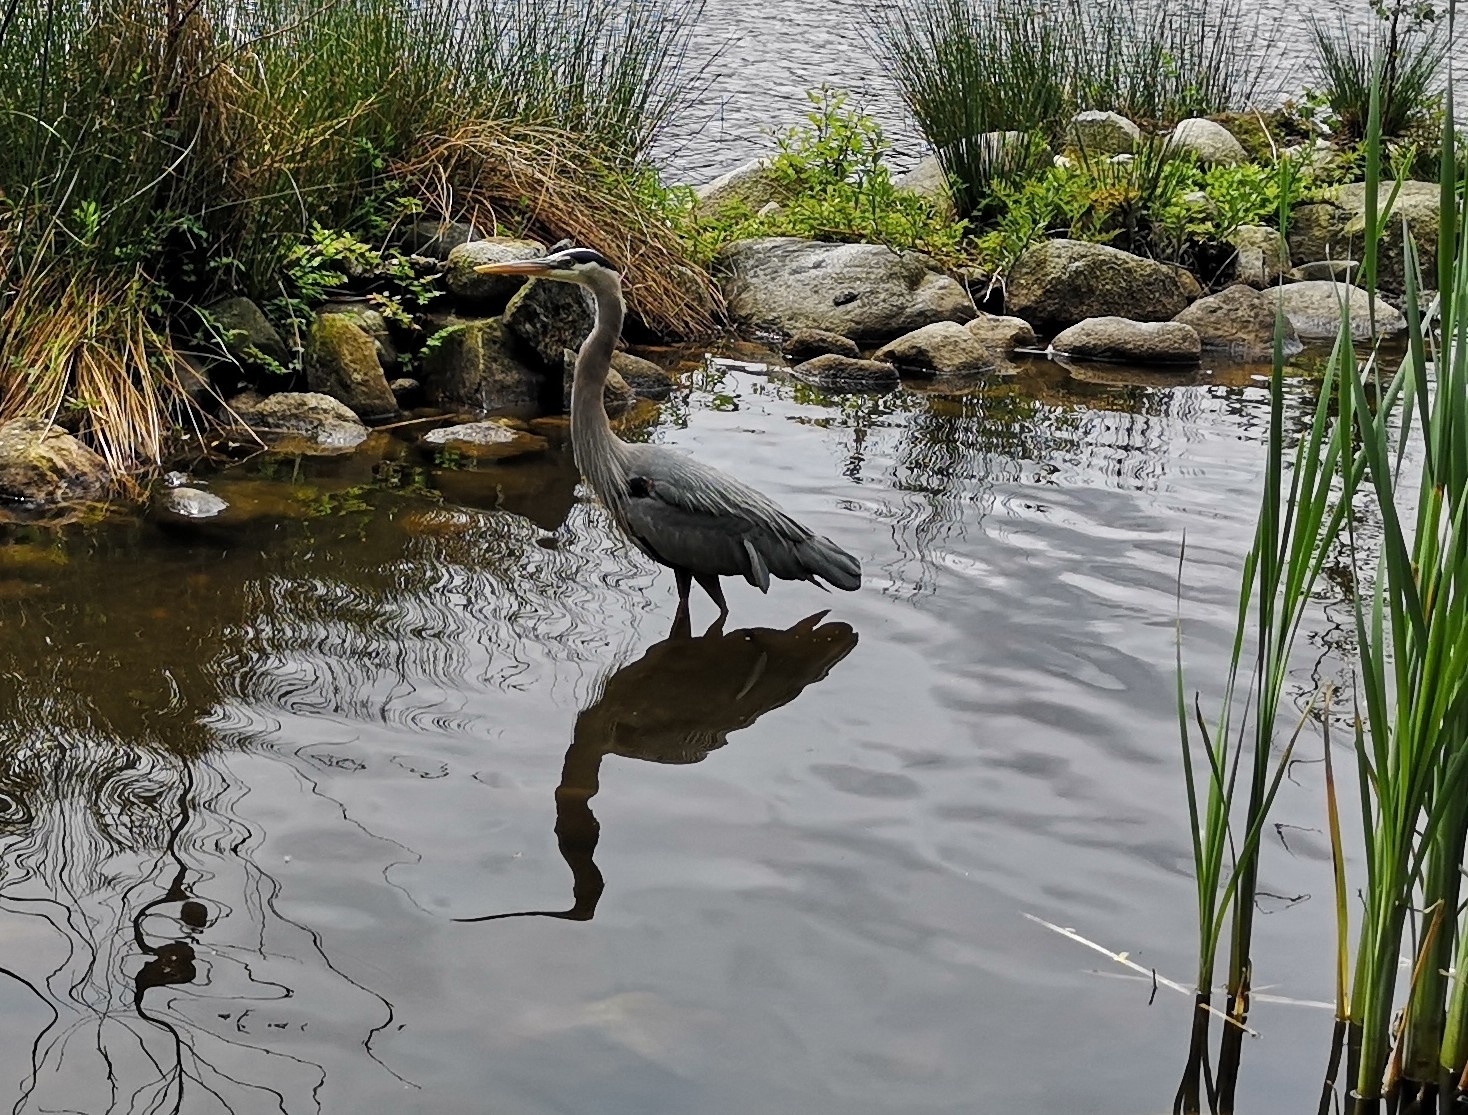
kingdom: Animalia
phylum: Chordata
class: Aves
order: Pelecaniformes
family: Ardeidae
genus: Ardea
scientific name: Ardea herodias
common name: Great blue heron
